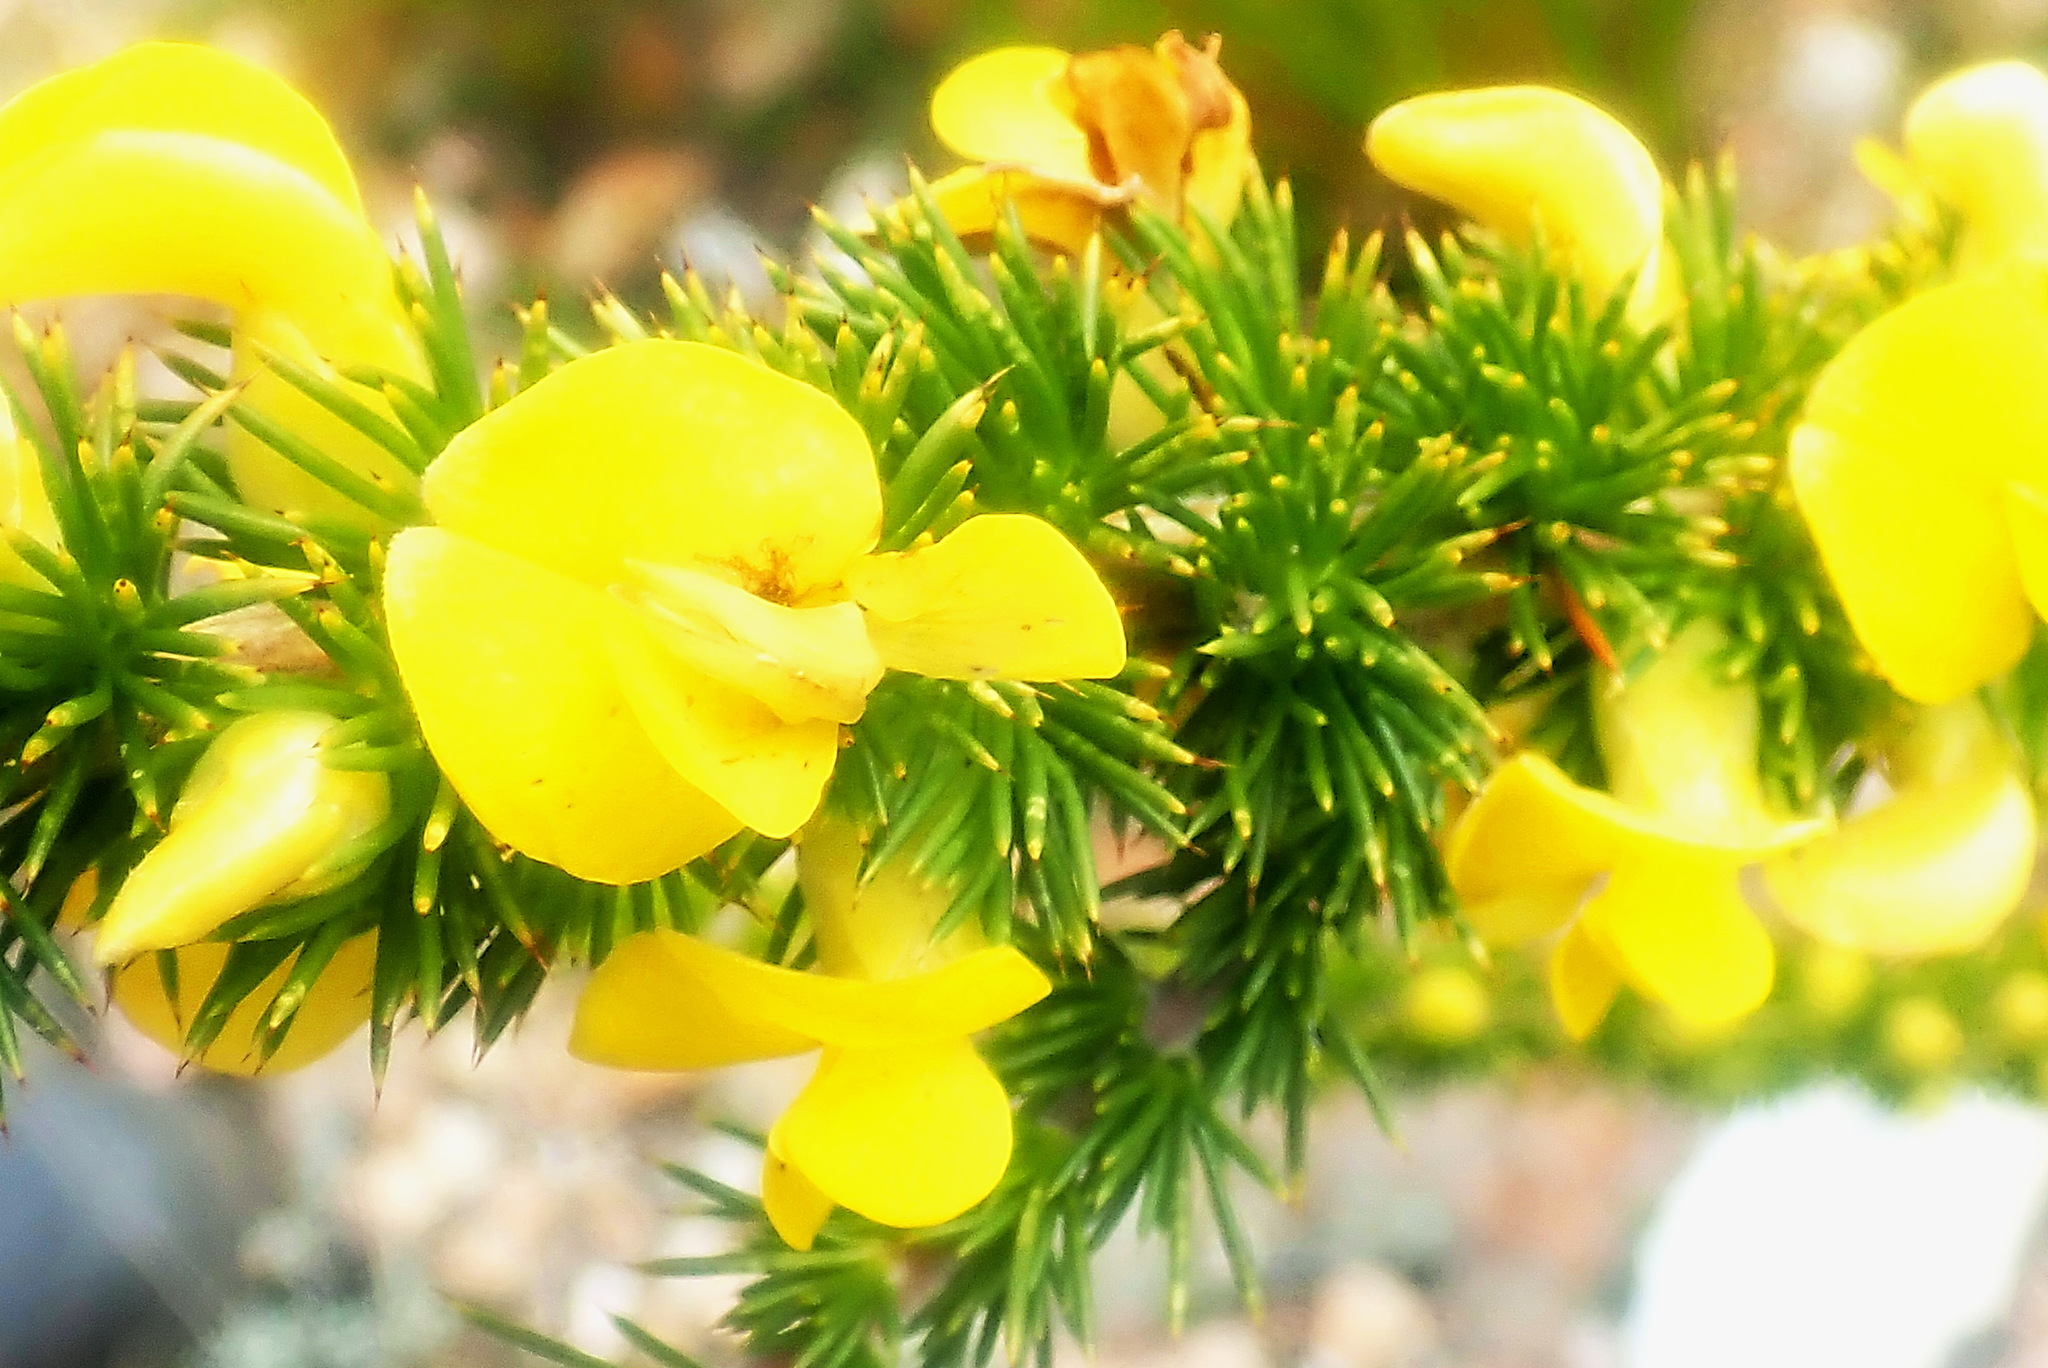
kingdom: Plantae
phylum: Tracheophyta
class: Magnoliopsida
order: Fabales
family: Fabaceae
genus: Aspalathus
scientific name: Aspalathus sceptrumaureum
